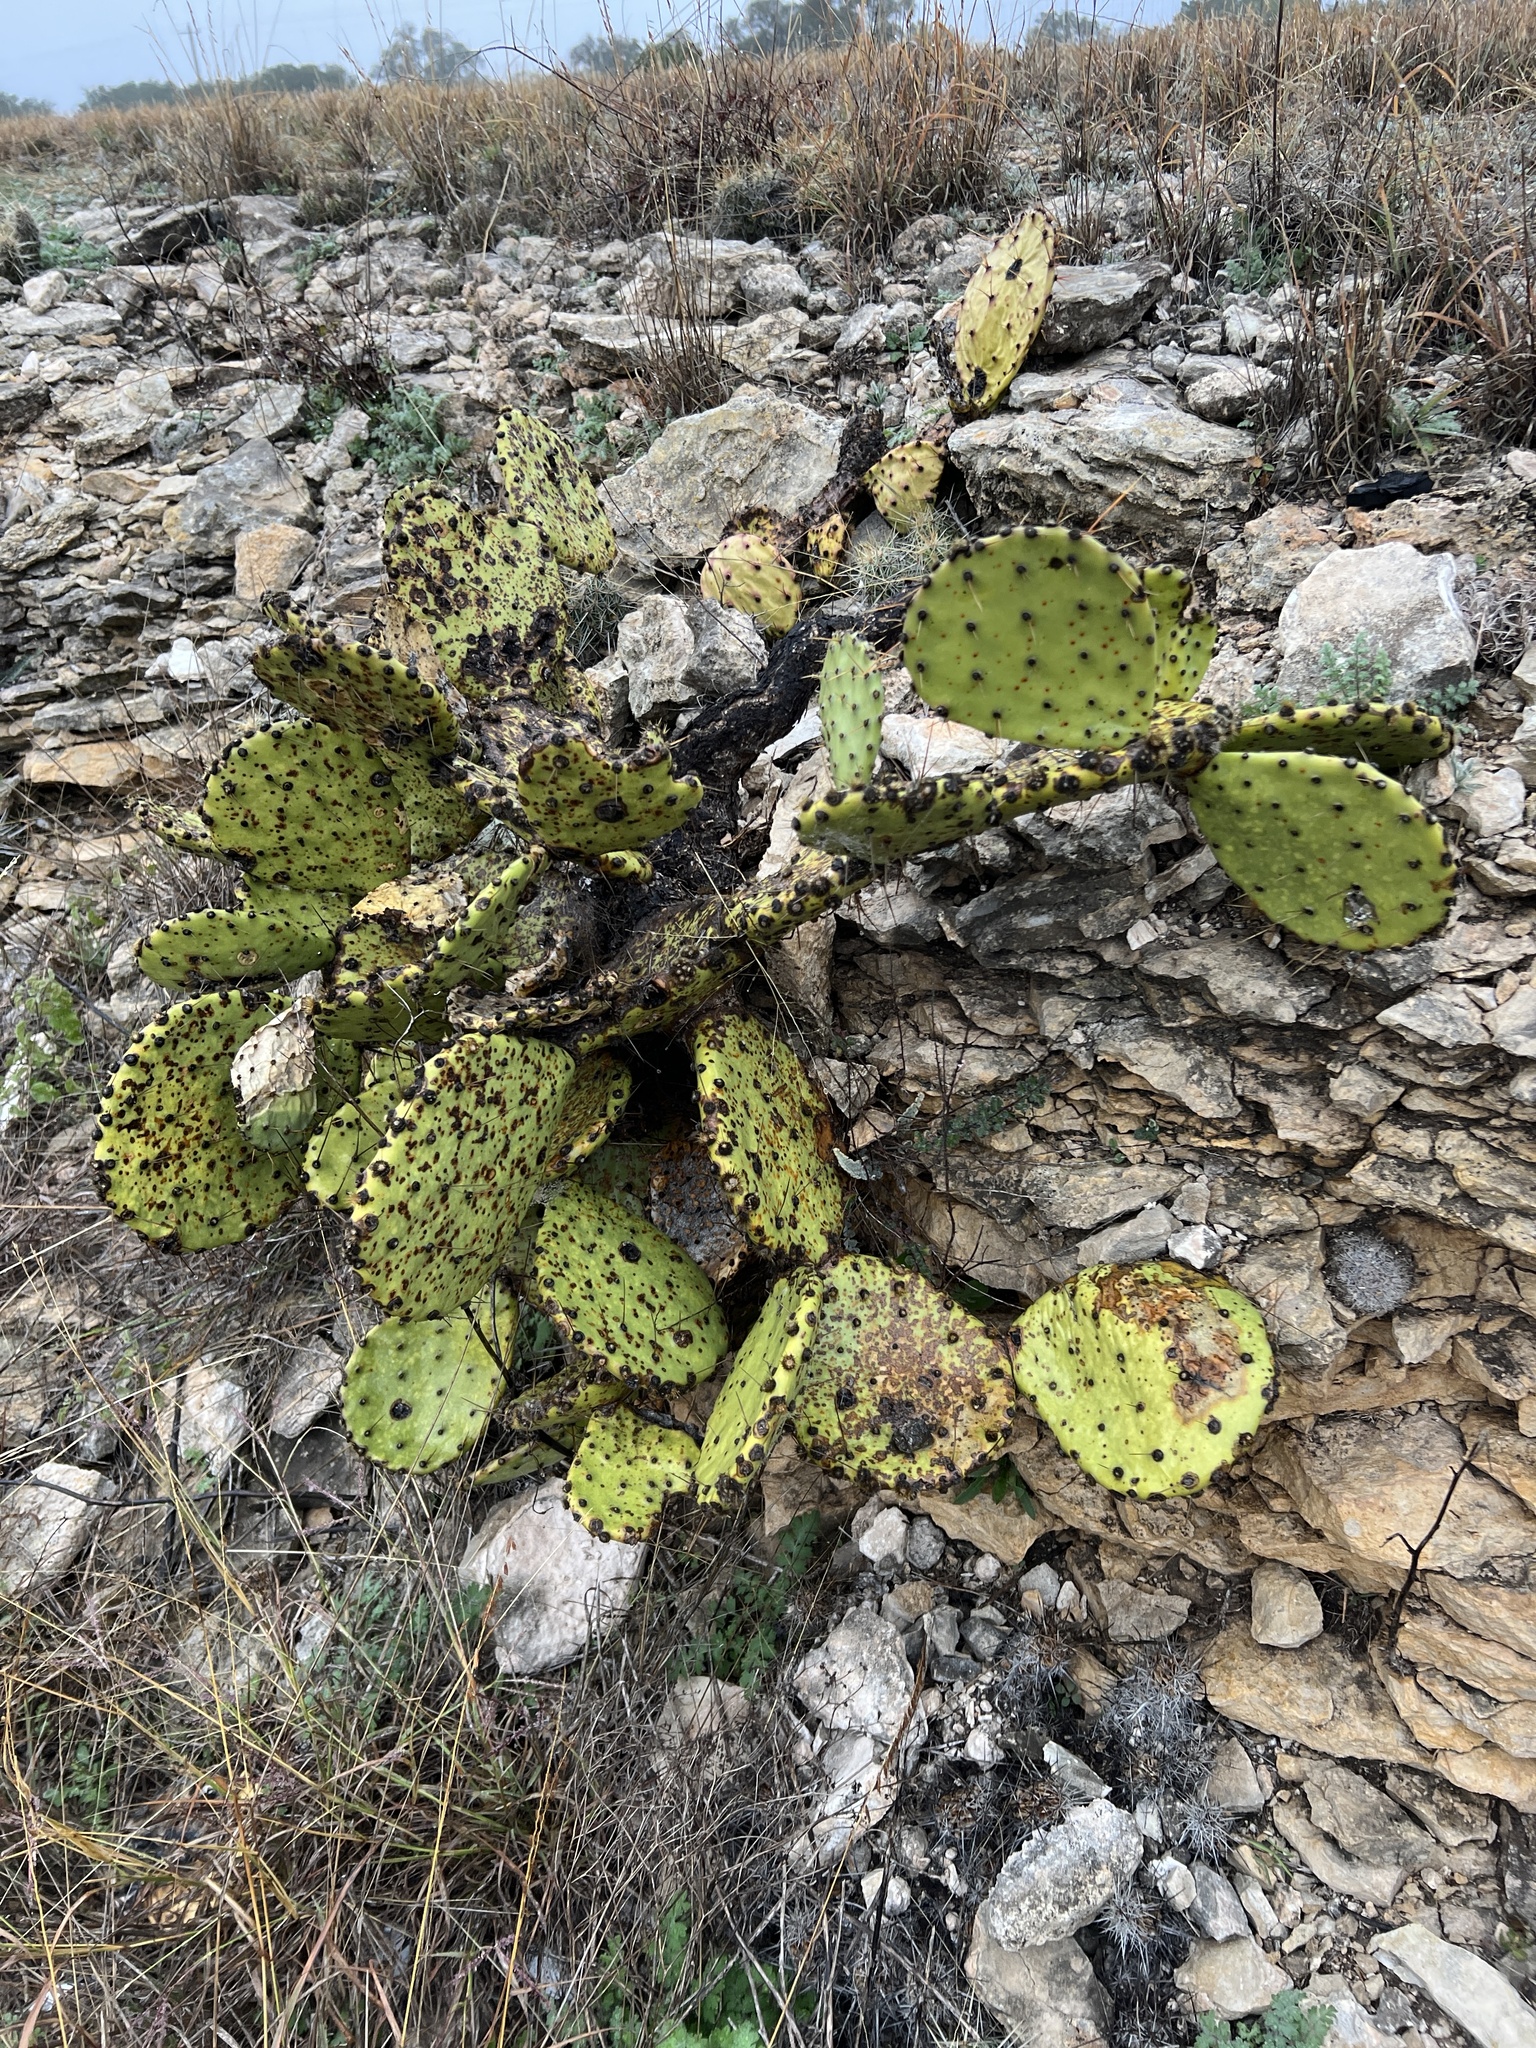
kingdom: Plantae
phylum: Tracheophyta
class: Magnoliopsida
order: Caryophyllales
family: Cactaceae
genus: Opuntia
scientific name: Opuntia phaeacantha
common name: New mexico prickly-pear
